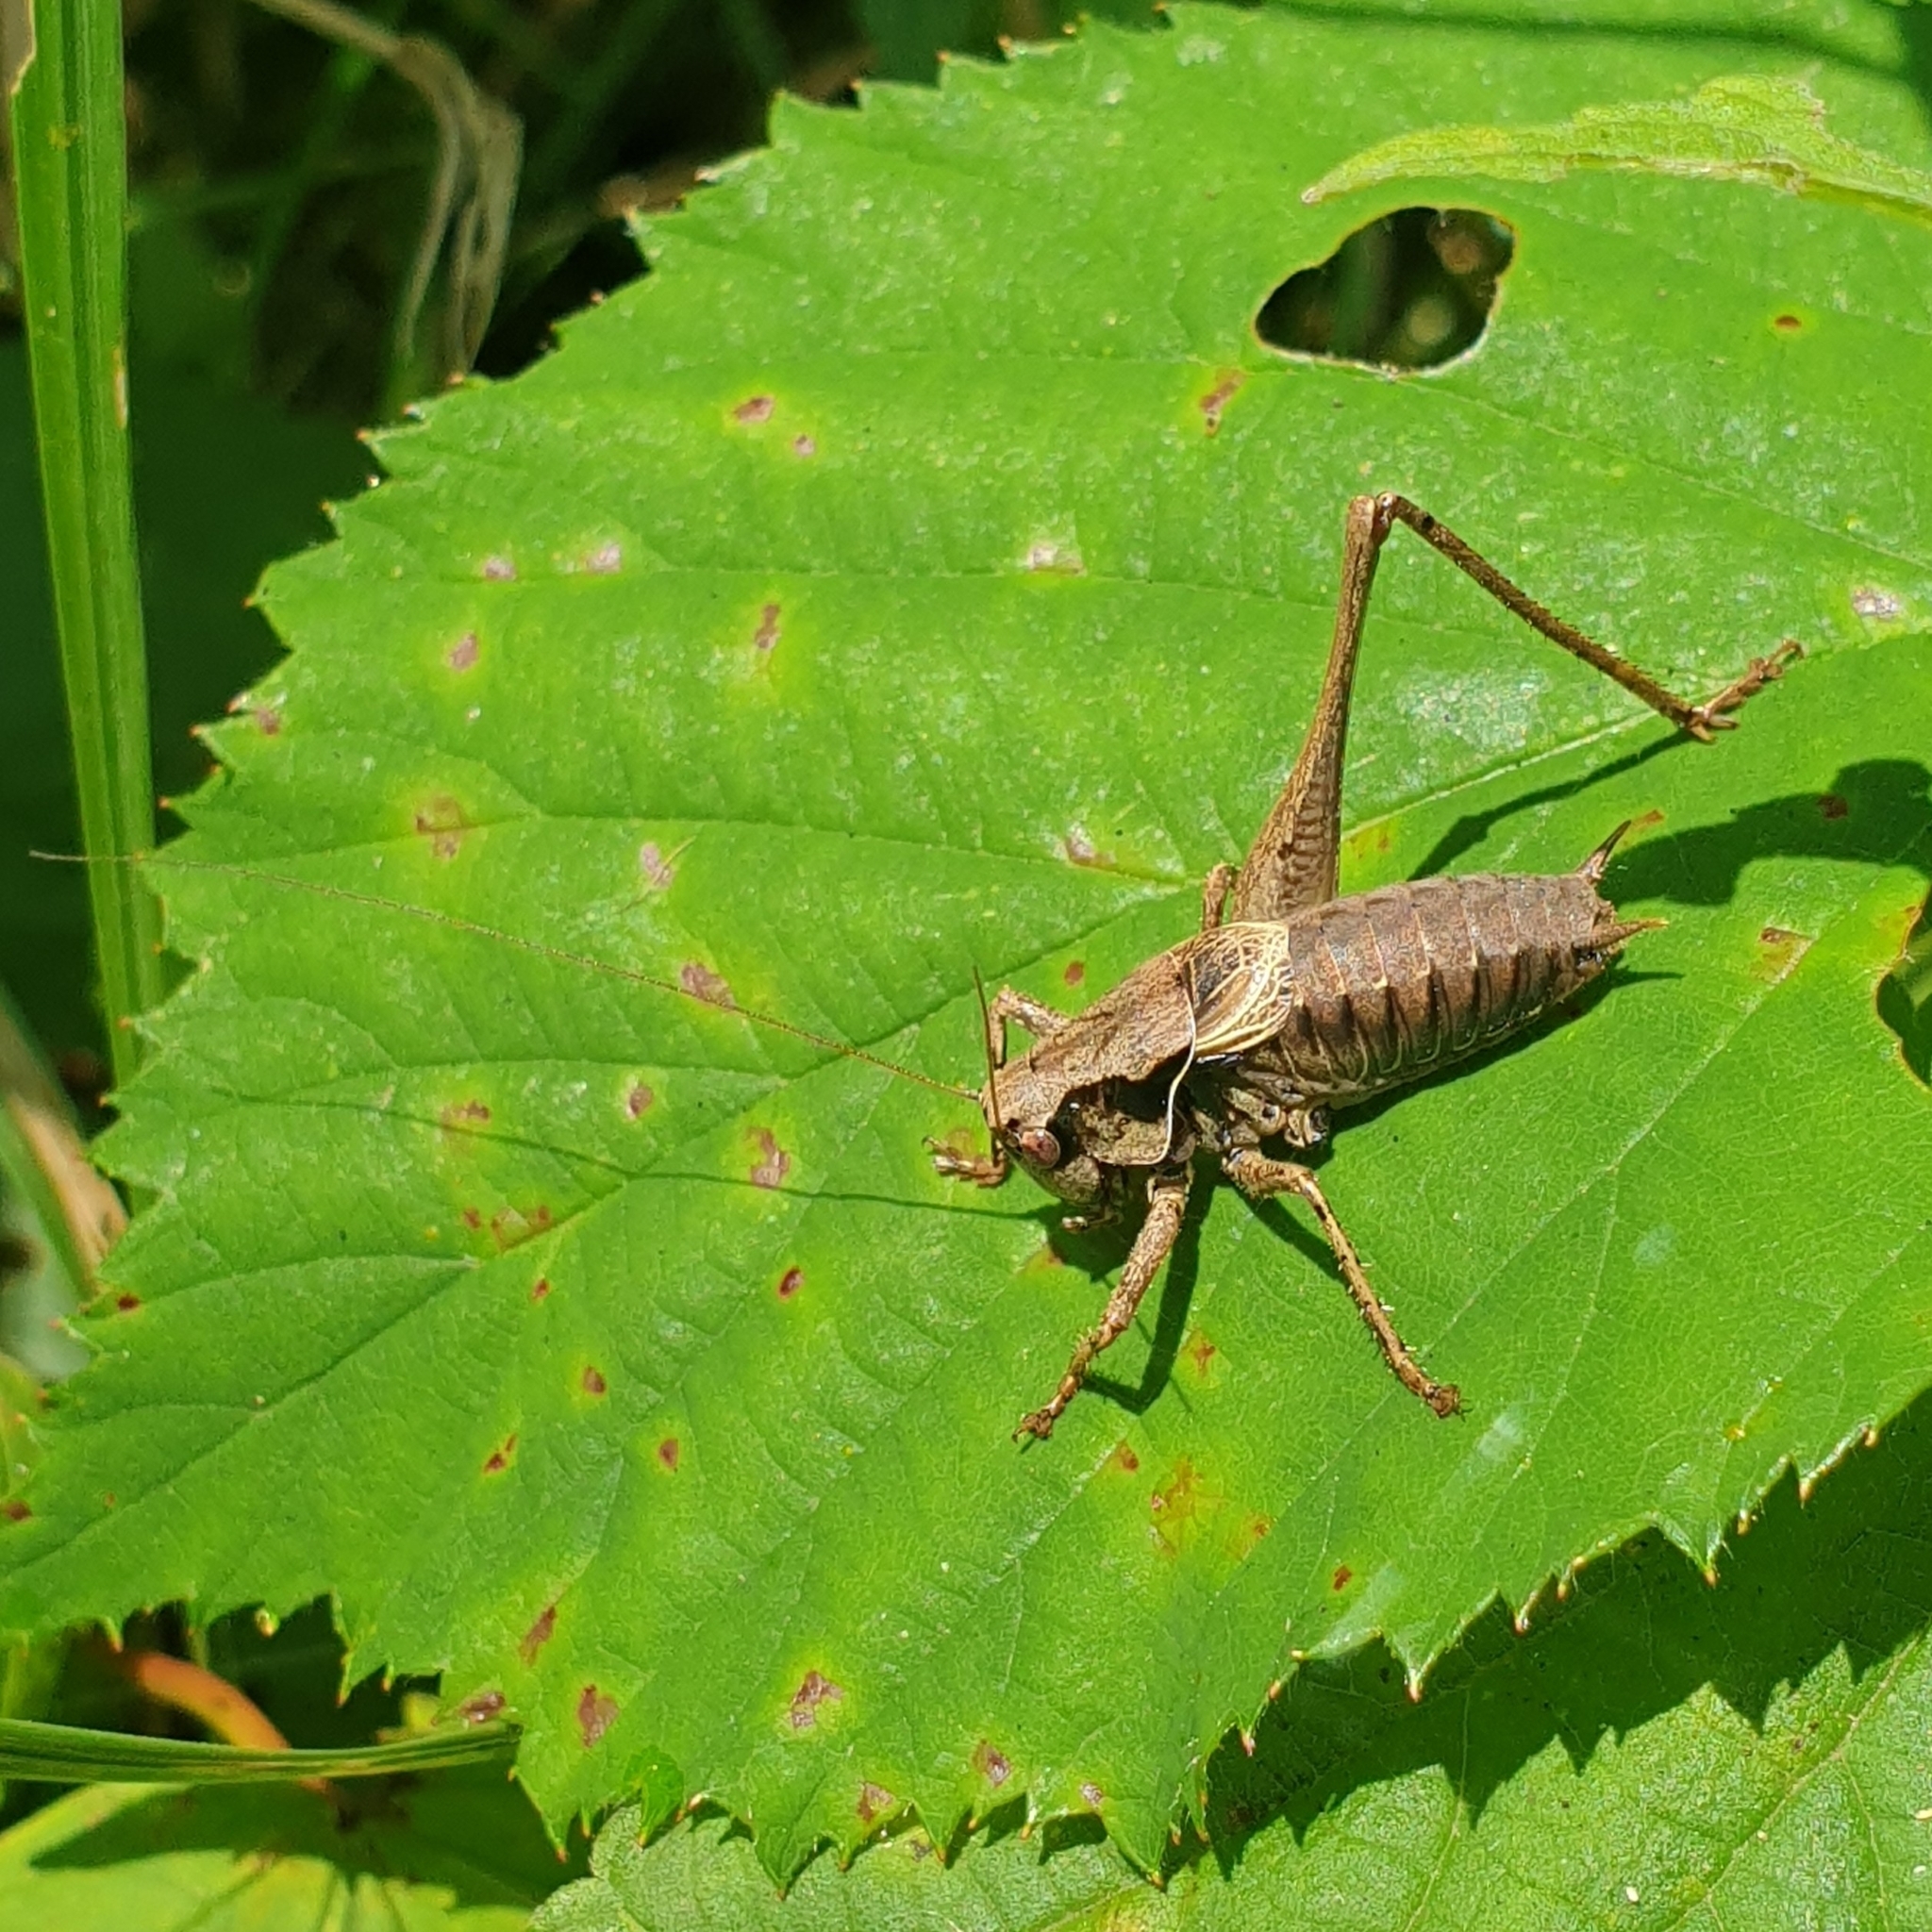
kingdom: Animalia
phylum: Arthropoda
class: Insecta
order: Orthoptera
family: Tettigoniidae
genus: Pholidoptera
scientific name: Pholidoptera griseoaptera
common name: Dark bush-cricket
